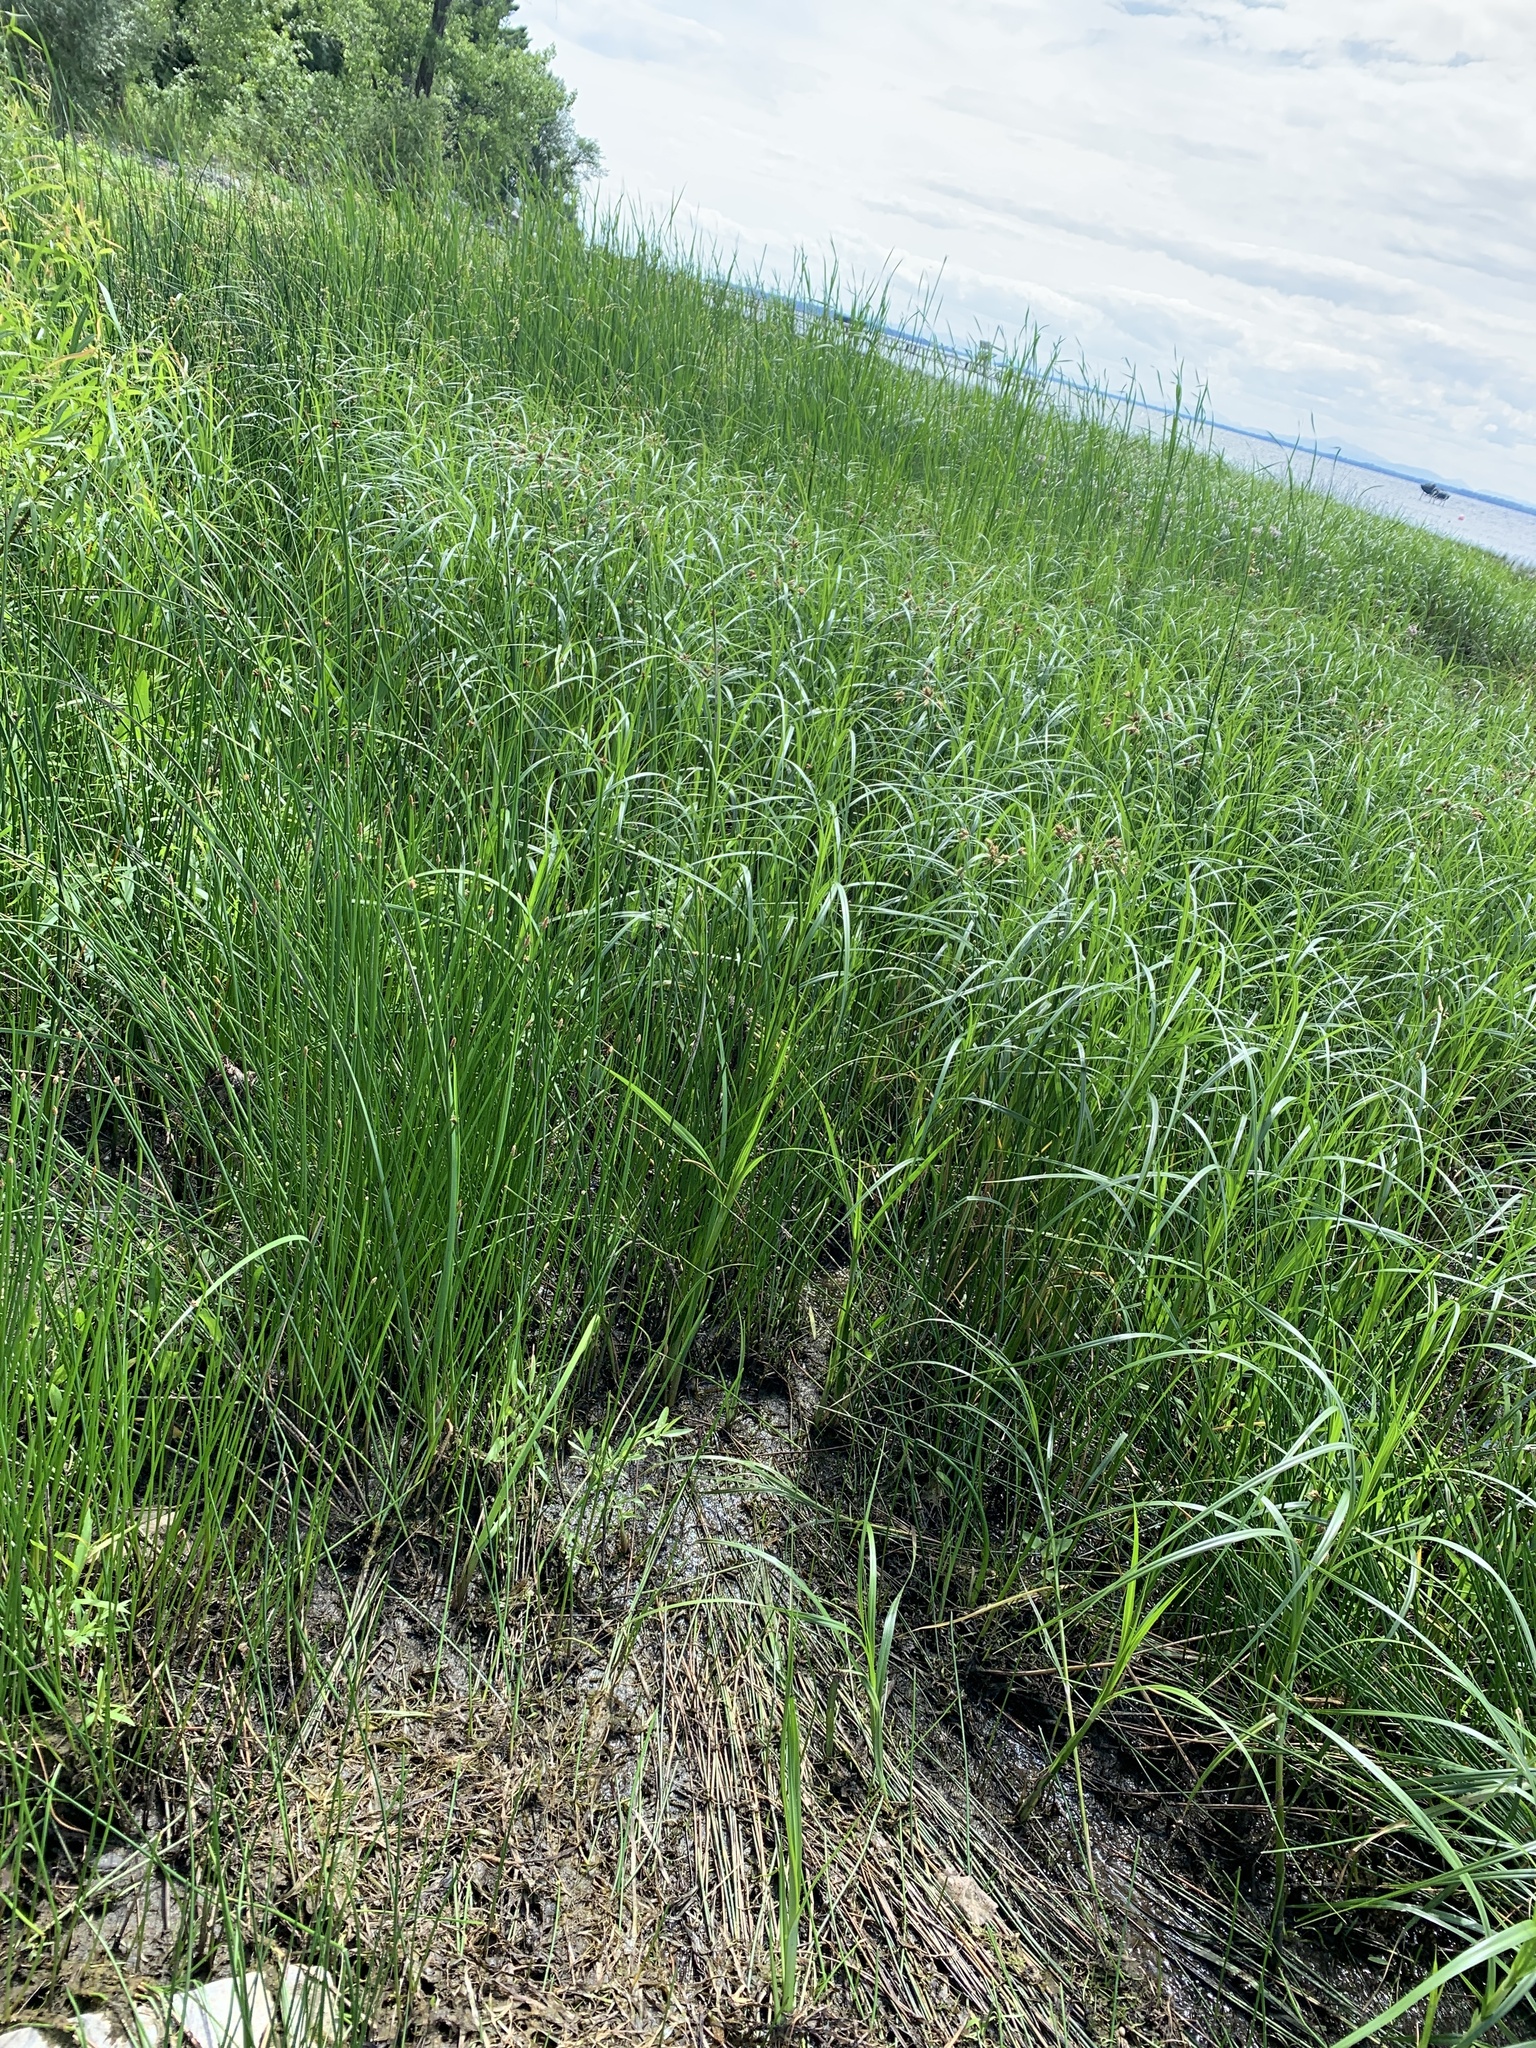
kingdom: Plantae
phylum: Tracheophyta
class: Liliopsida
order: Poales
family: Cyperaceae
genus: Bolboschoenus
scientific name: Bolboschoenus fluviatilis
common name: River bulrush
